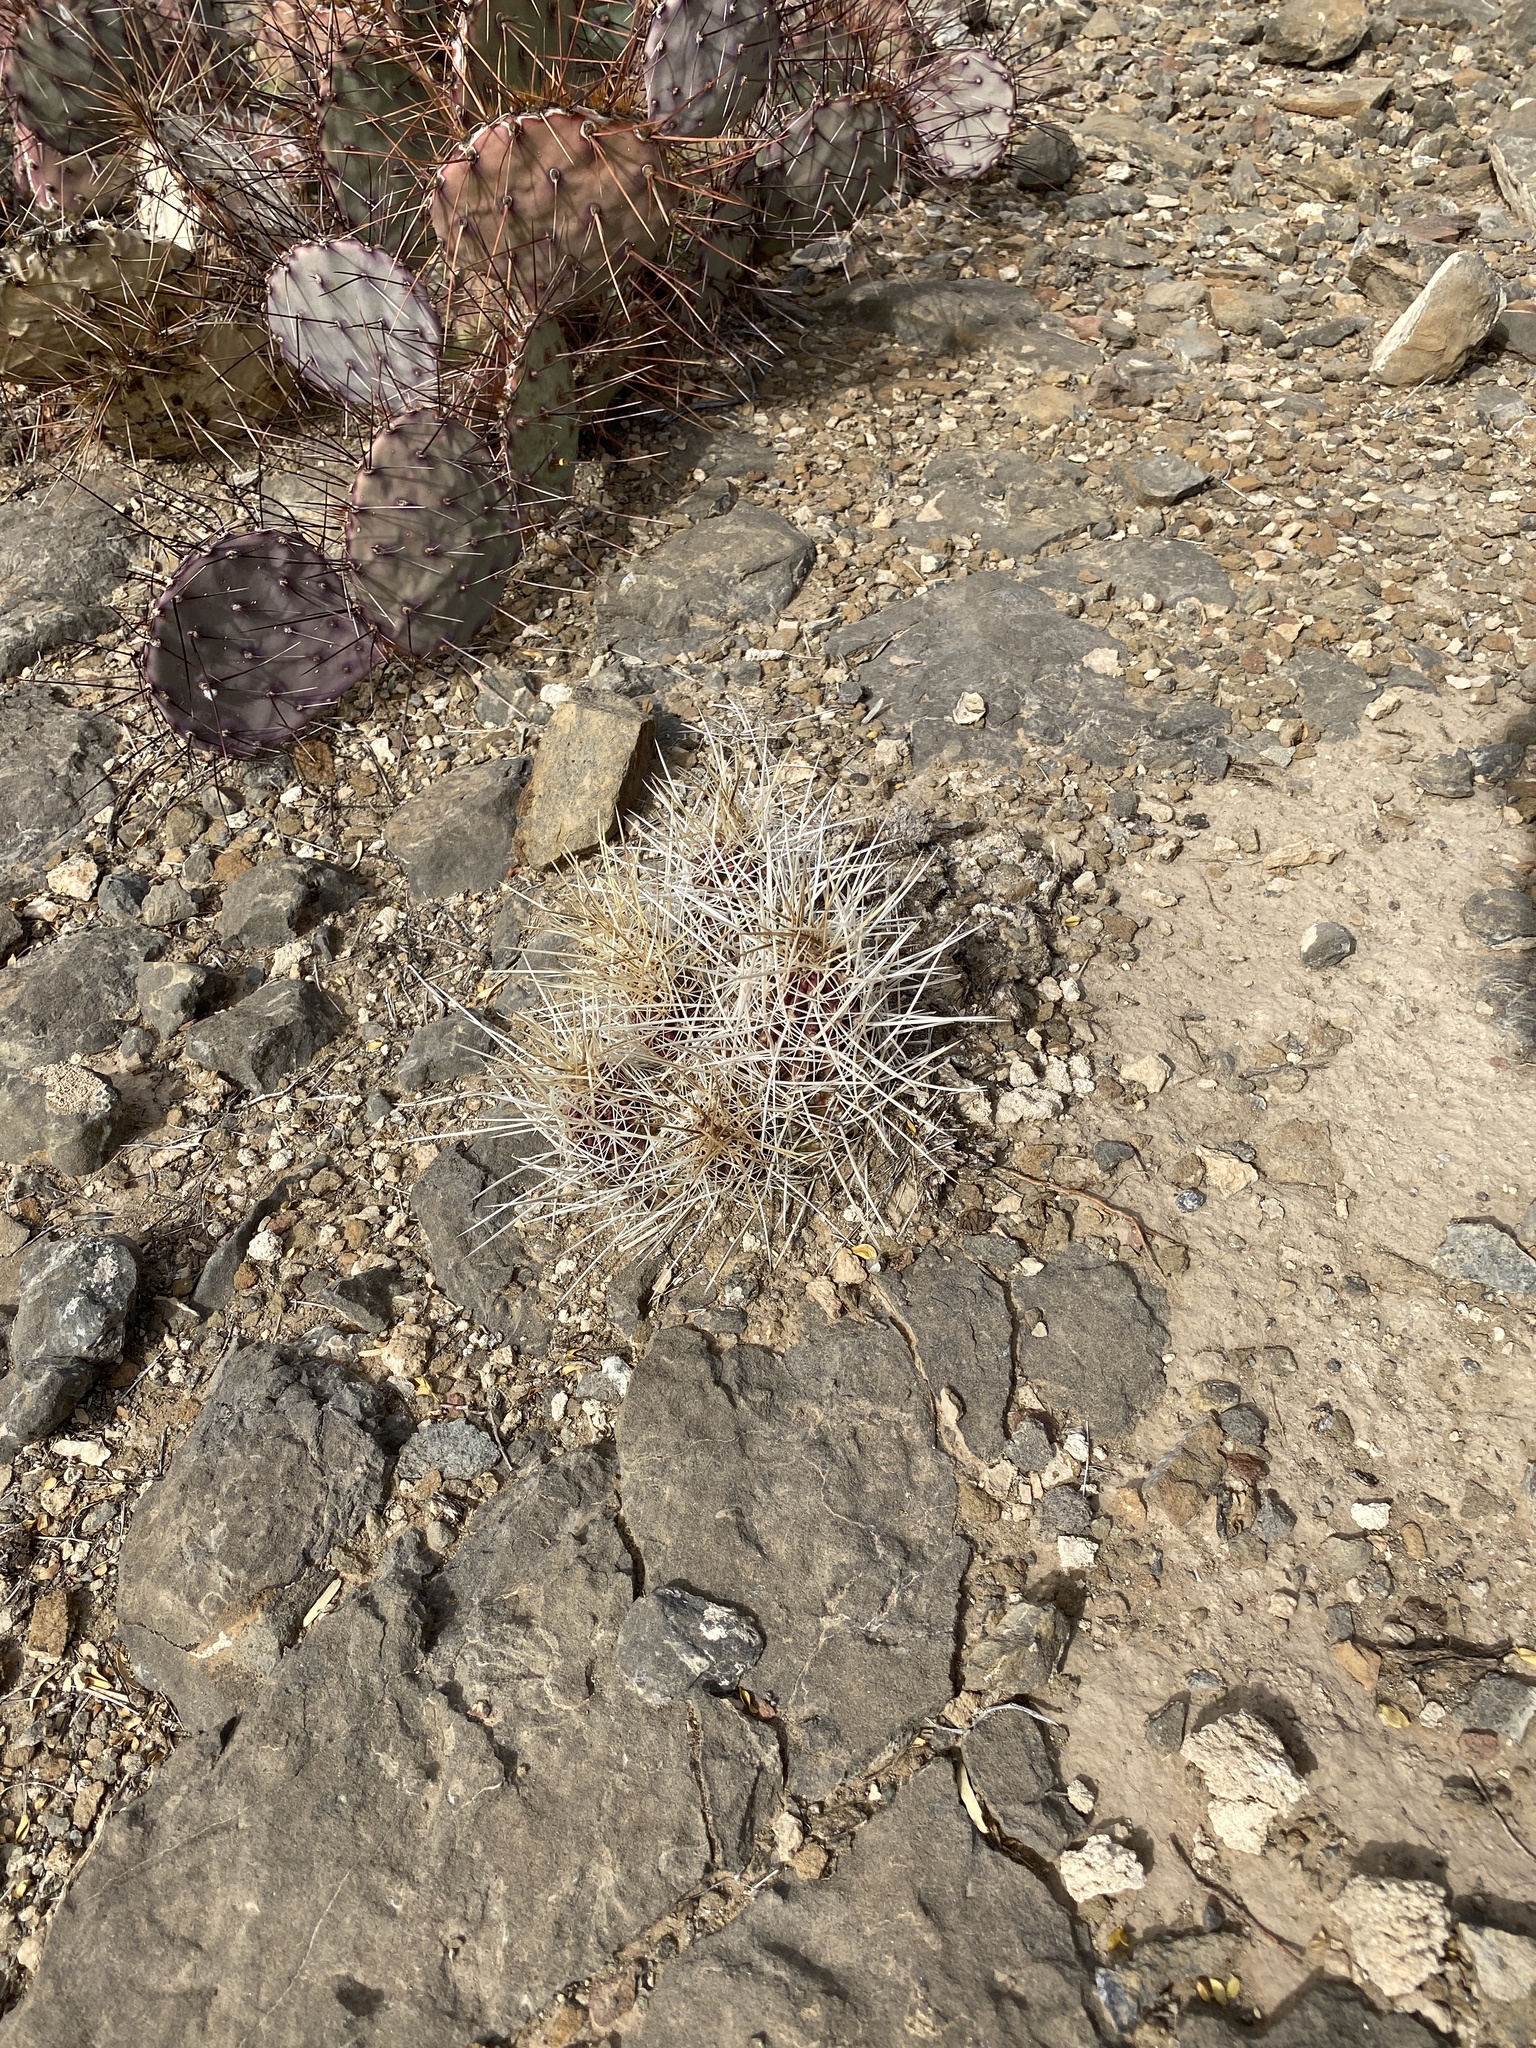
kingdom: Plantae
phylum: Tracheophyta
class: Magnoliopsida
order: Caryophyllales
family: Cactaceae
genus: Echinocereus
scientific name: Echinocereus stramineus
